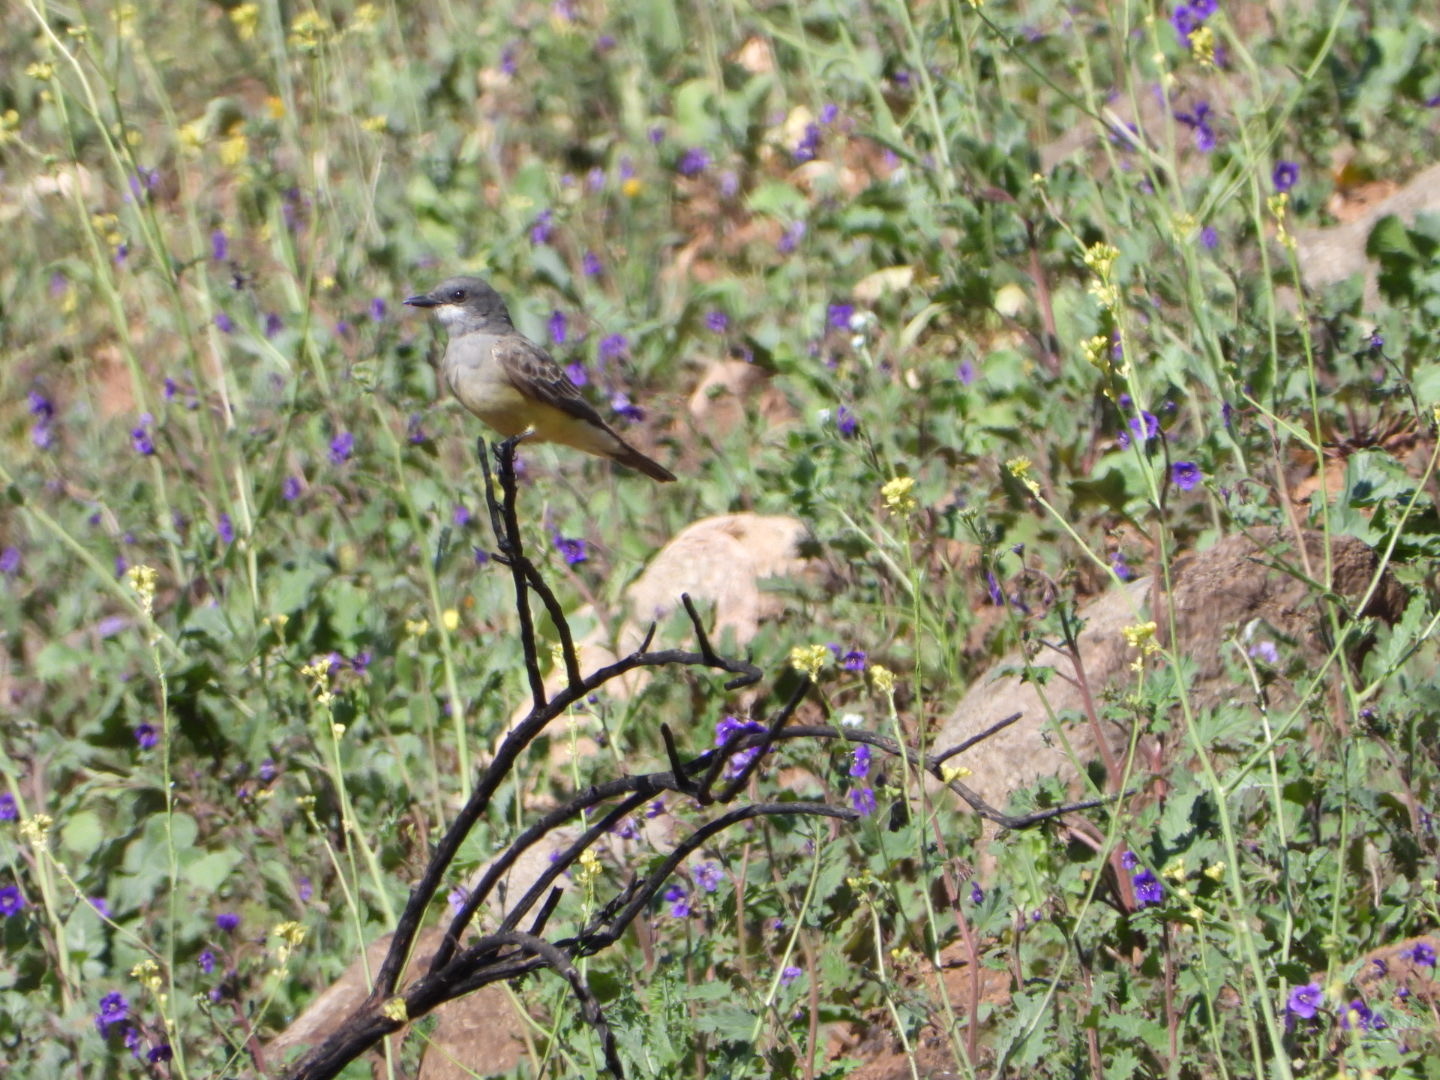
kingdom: Animalia
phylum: Chordata
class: Aves
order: Passeriformes
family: Tyrannidae
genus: Tyrannus
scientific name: Tyrannus vociferans
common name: Cassin's kingbird
